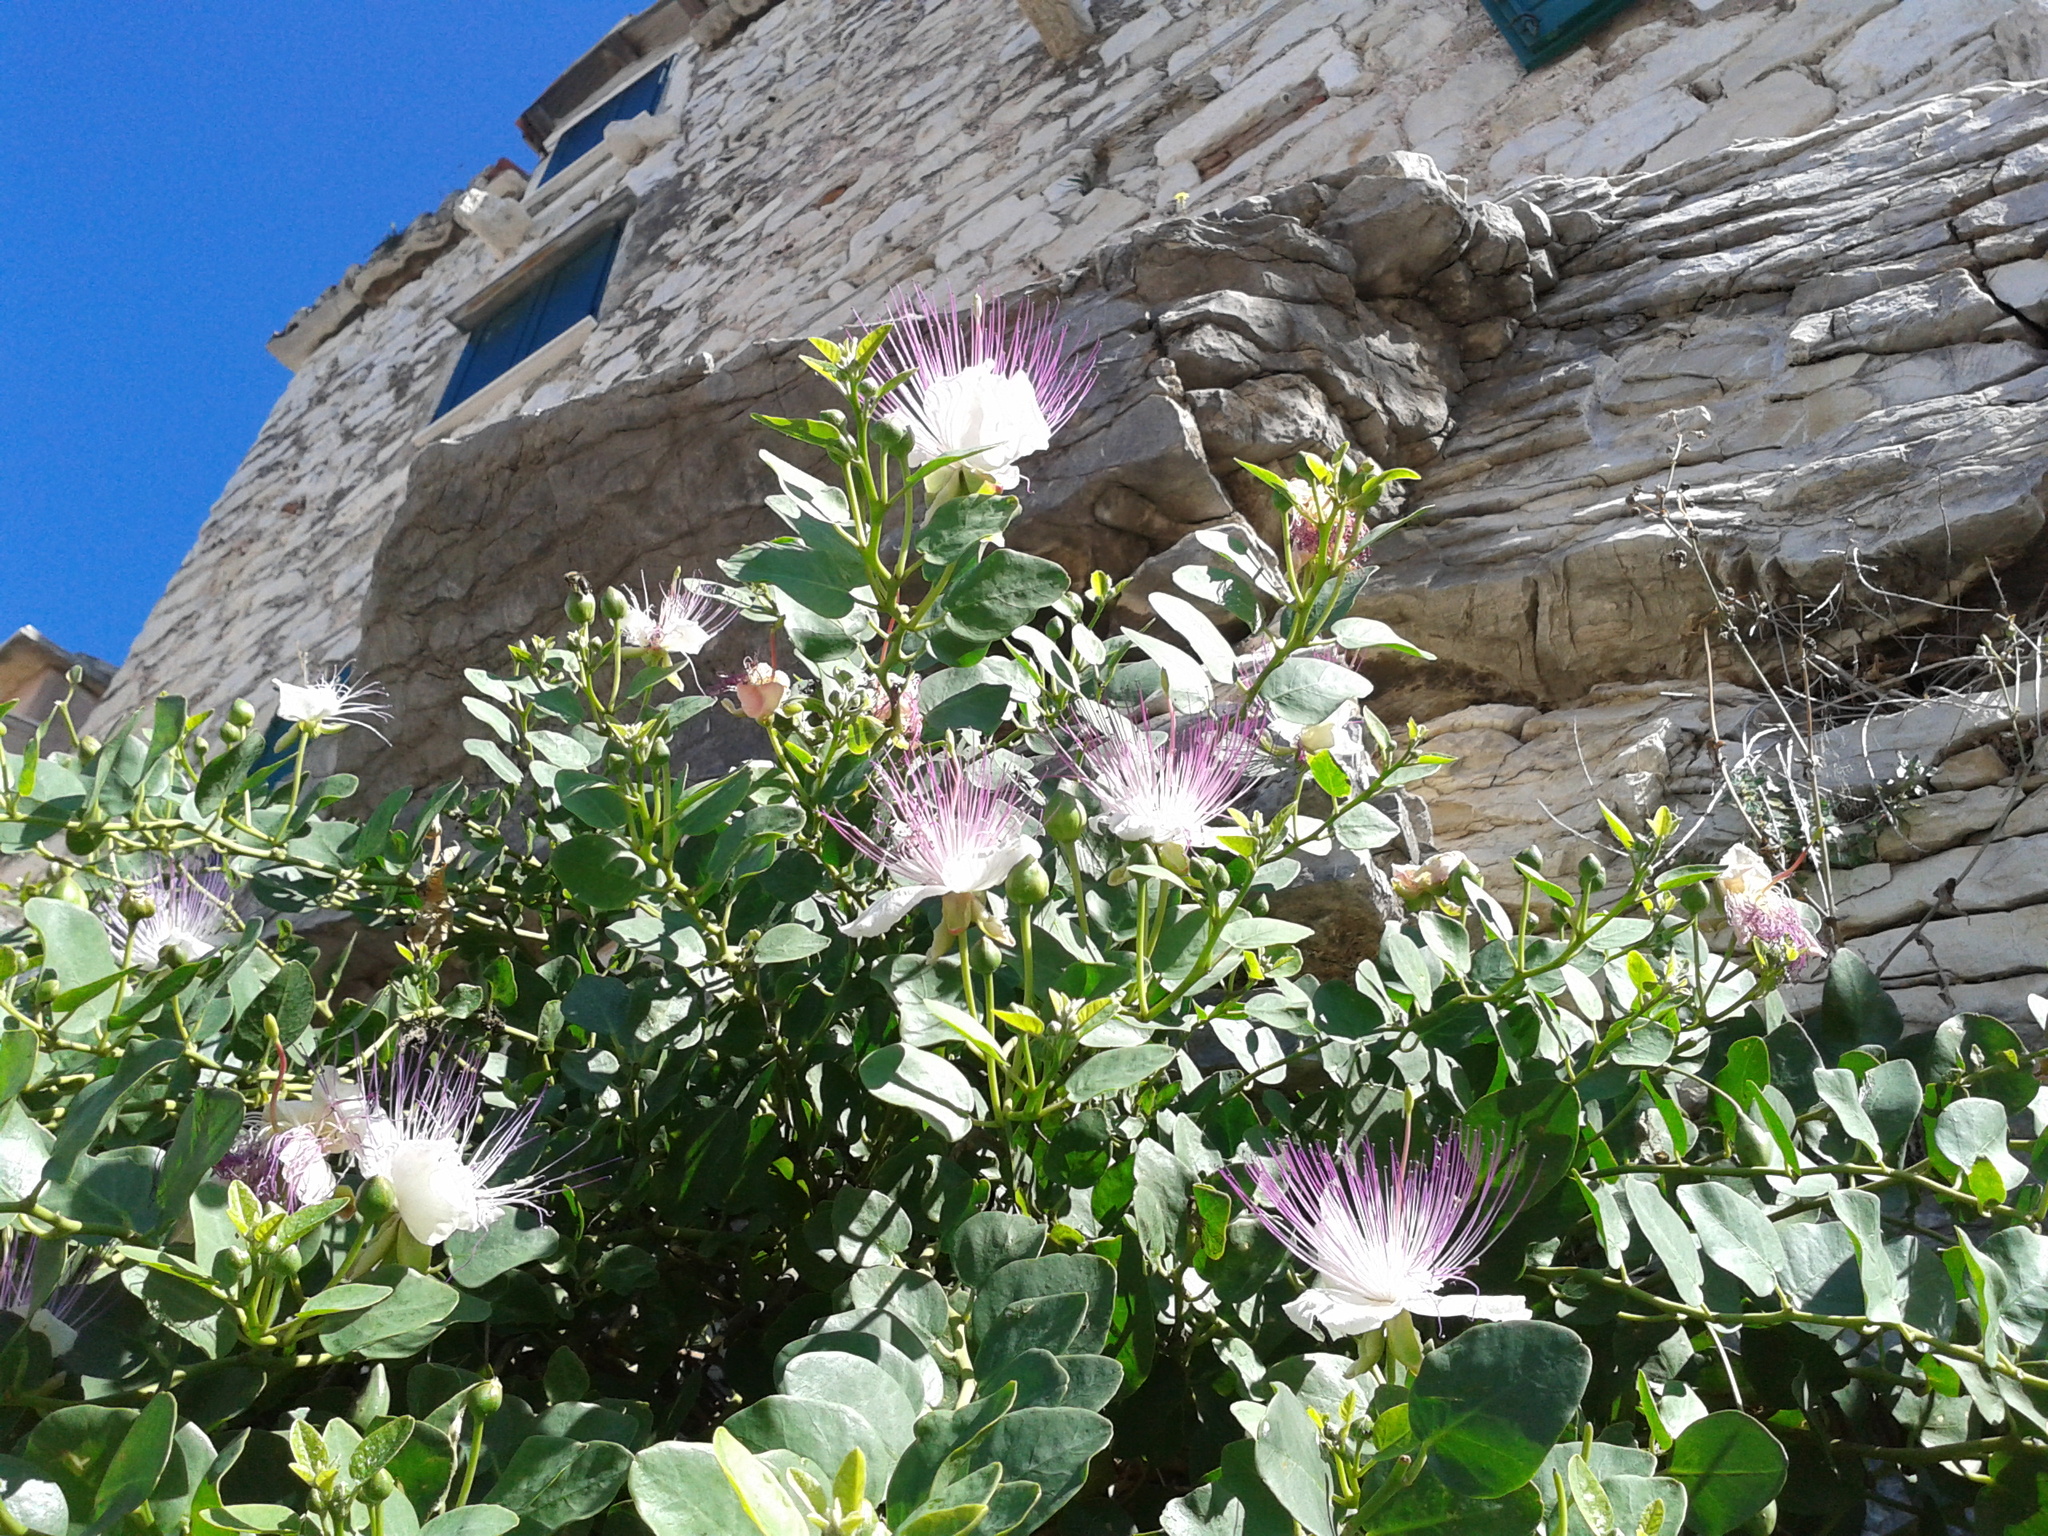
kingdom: Plantae
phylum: Tracheophyta
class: Magnoliopsida
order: Brassicales
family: Capparaceae
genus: Capparis
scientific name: Capparis orientalis
